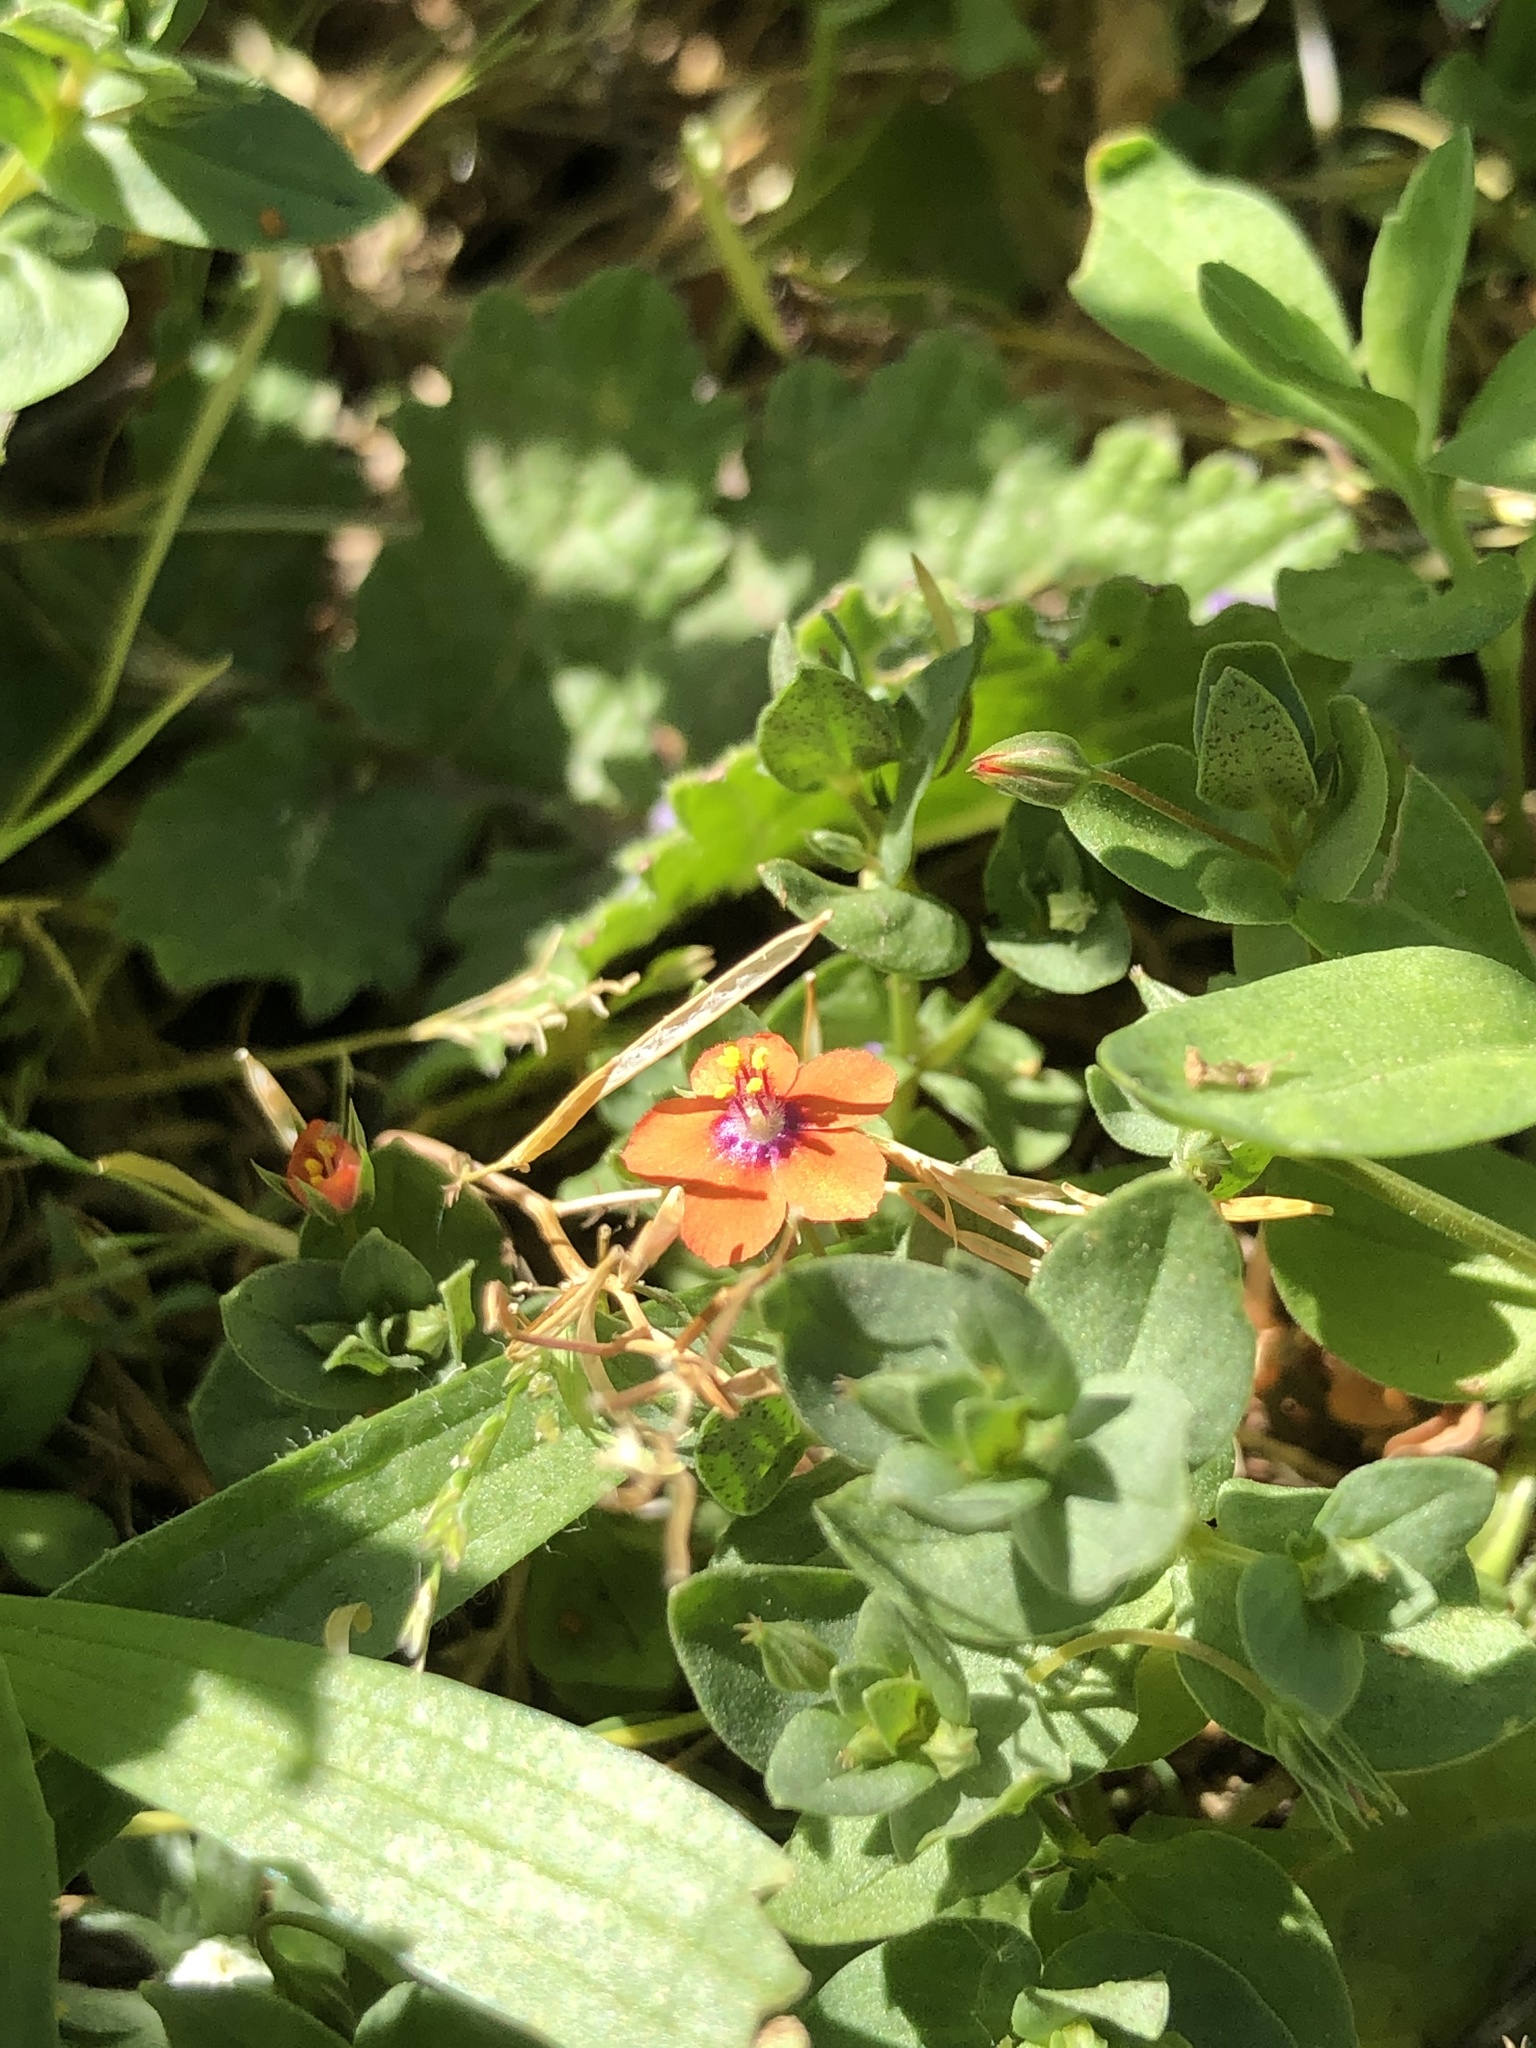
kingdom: Plantae
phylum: Tracheophyta
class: Magnoliopsida
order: Ericales
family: Primulaceae
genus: Lysimachia
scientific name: Lysimachia arvensis
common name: Scarlet pimpernel
